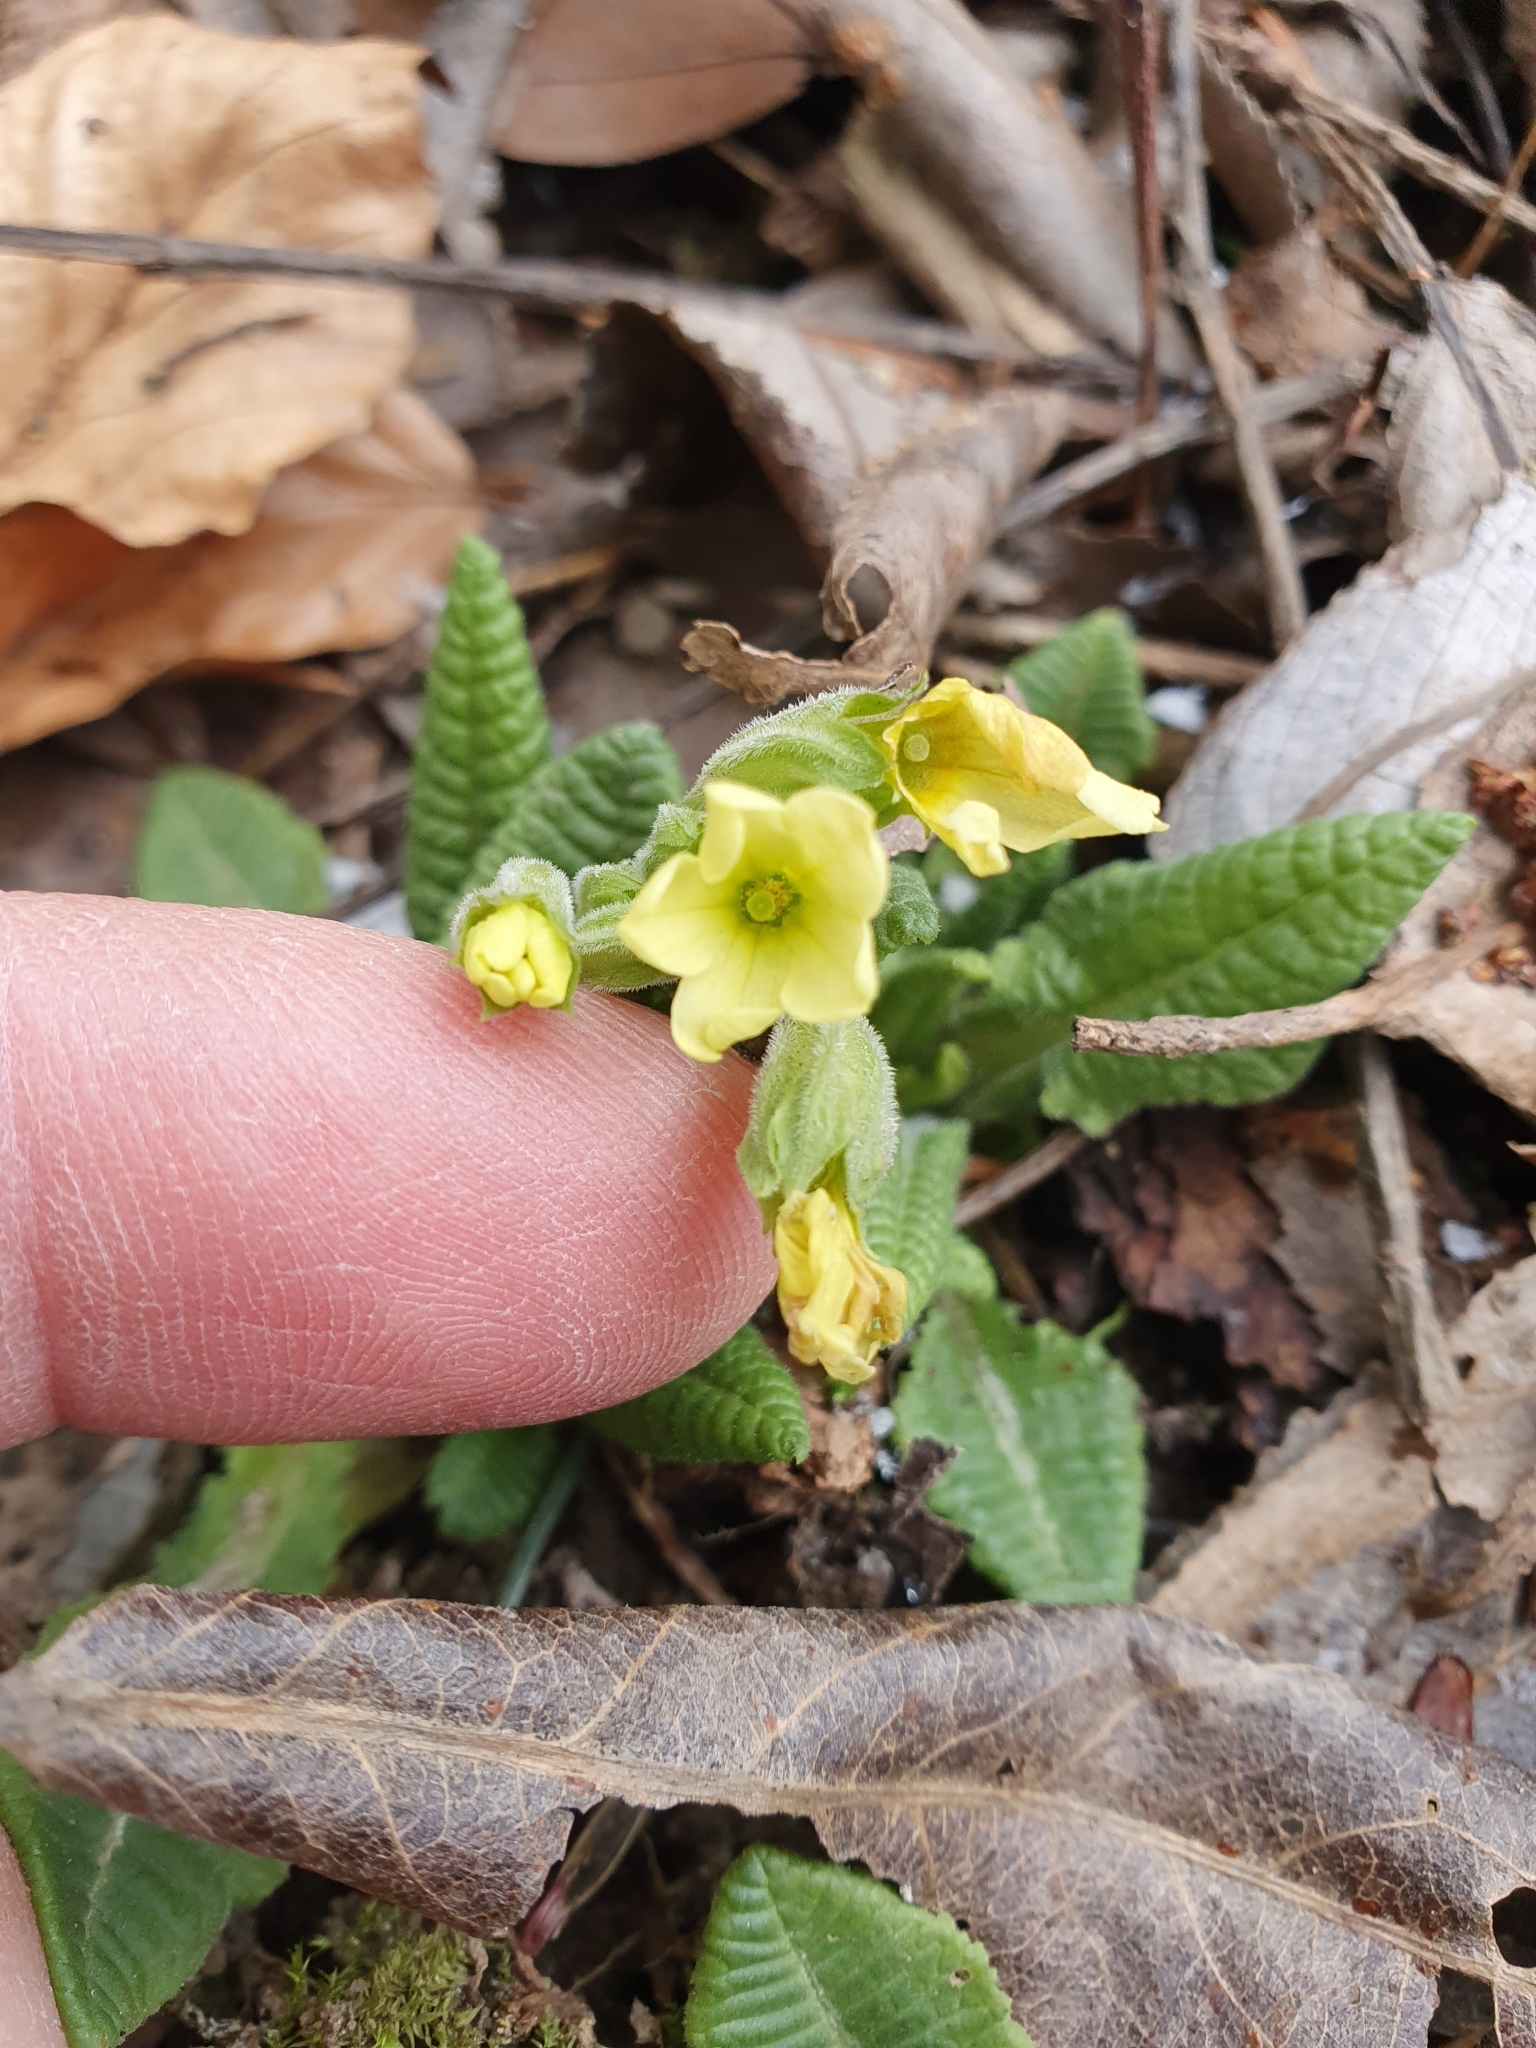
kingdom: Plantae
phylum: Tracheophyta
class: Magnoliopsida
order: Ericales
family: Primulaceae
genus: Primula
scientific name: Primula elatior
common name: Oxlip
